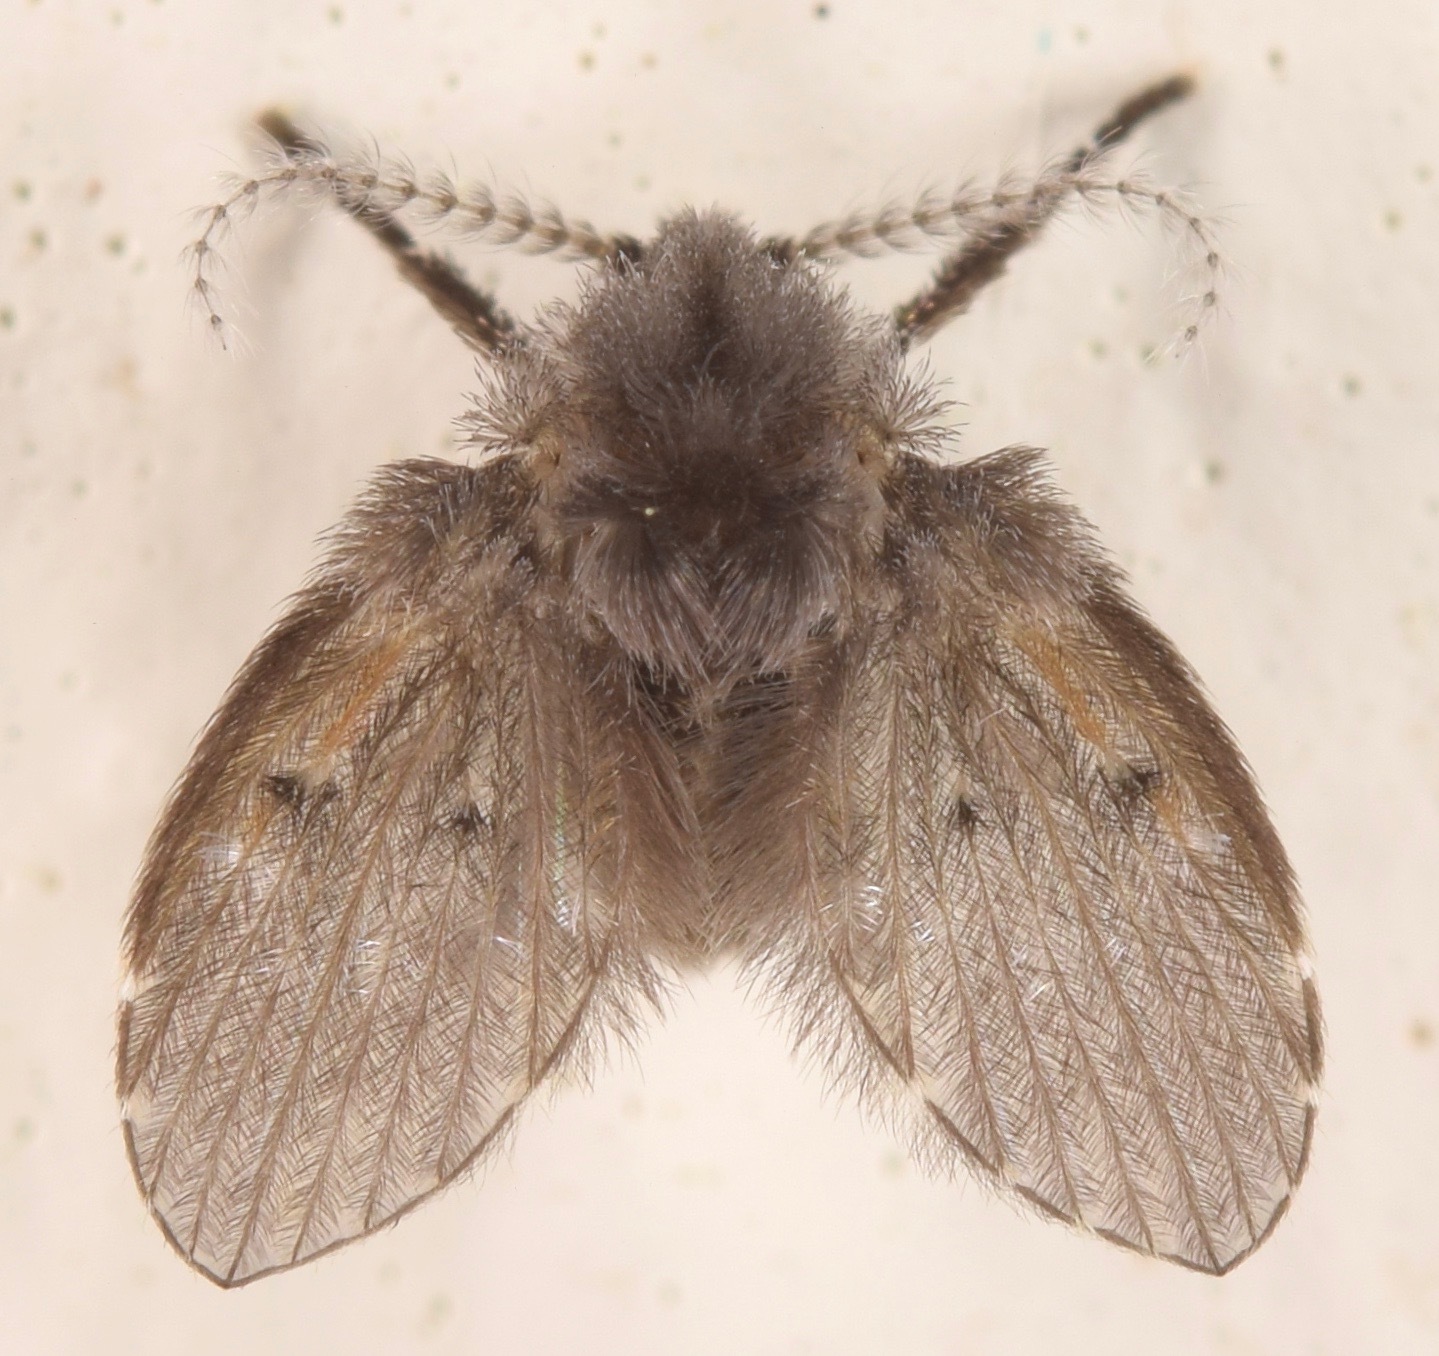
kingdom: Animalia
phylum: Arthropoda
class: Insecta
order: Diptera
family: Psychodidae
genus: Clogmia
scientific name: Clogmia albipunctatus
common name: White-spotted moth fly
